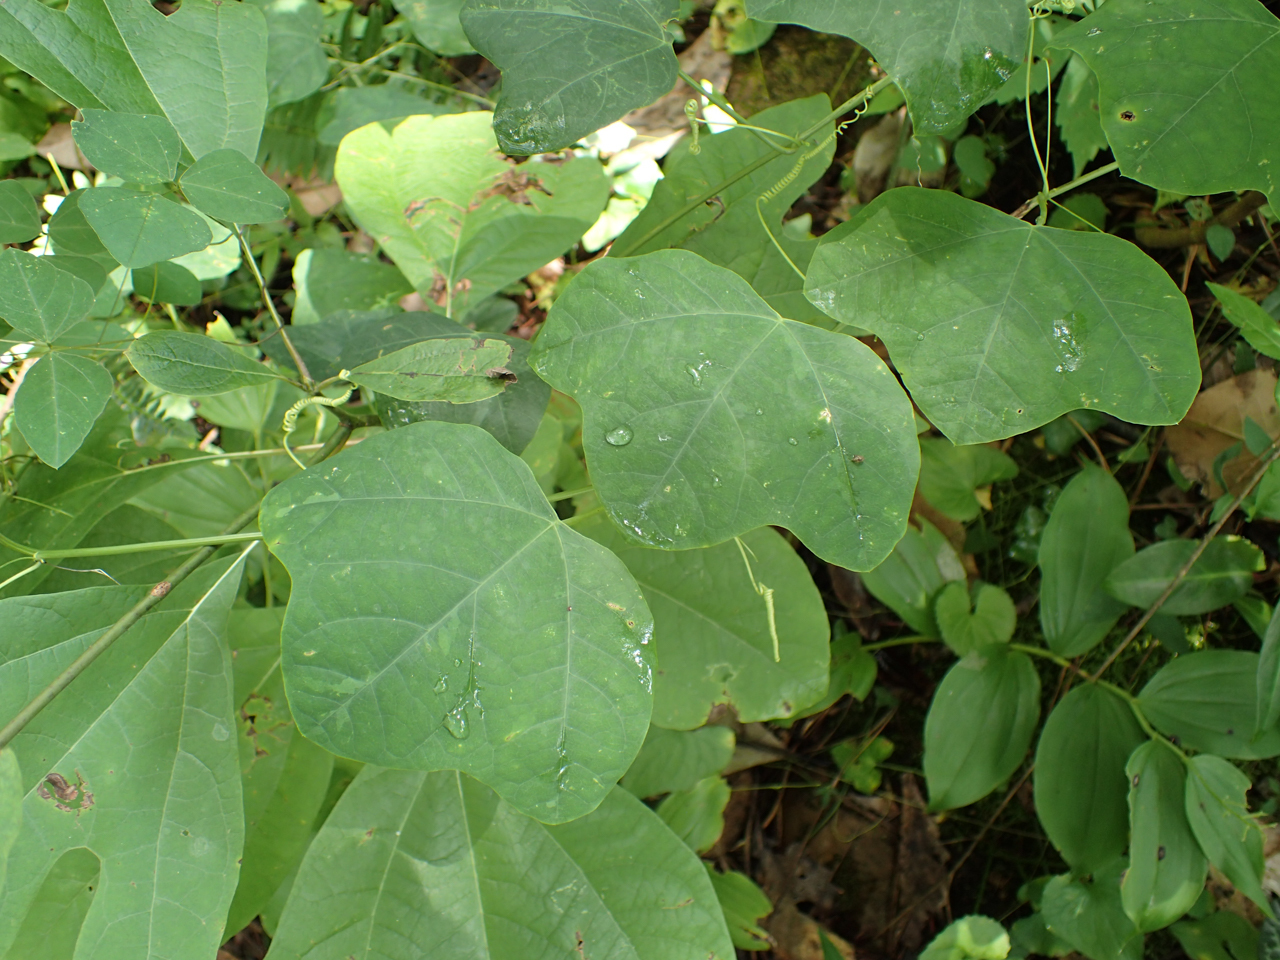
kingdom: Plantae
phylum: Tracheophyta
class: Magnoliopsida
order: Malpighiales
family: Passifloraceae
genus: Passiflora
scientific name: Passiflora lutea
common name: Yellow passionflower
